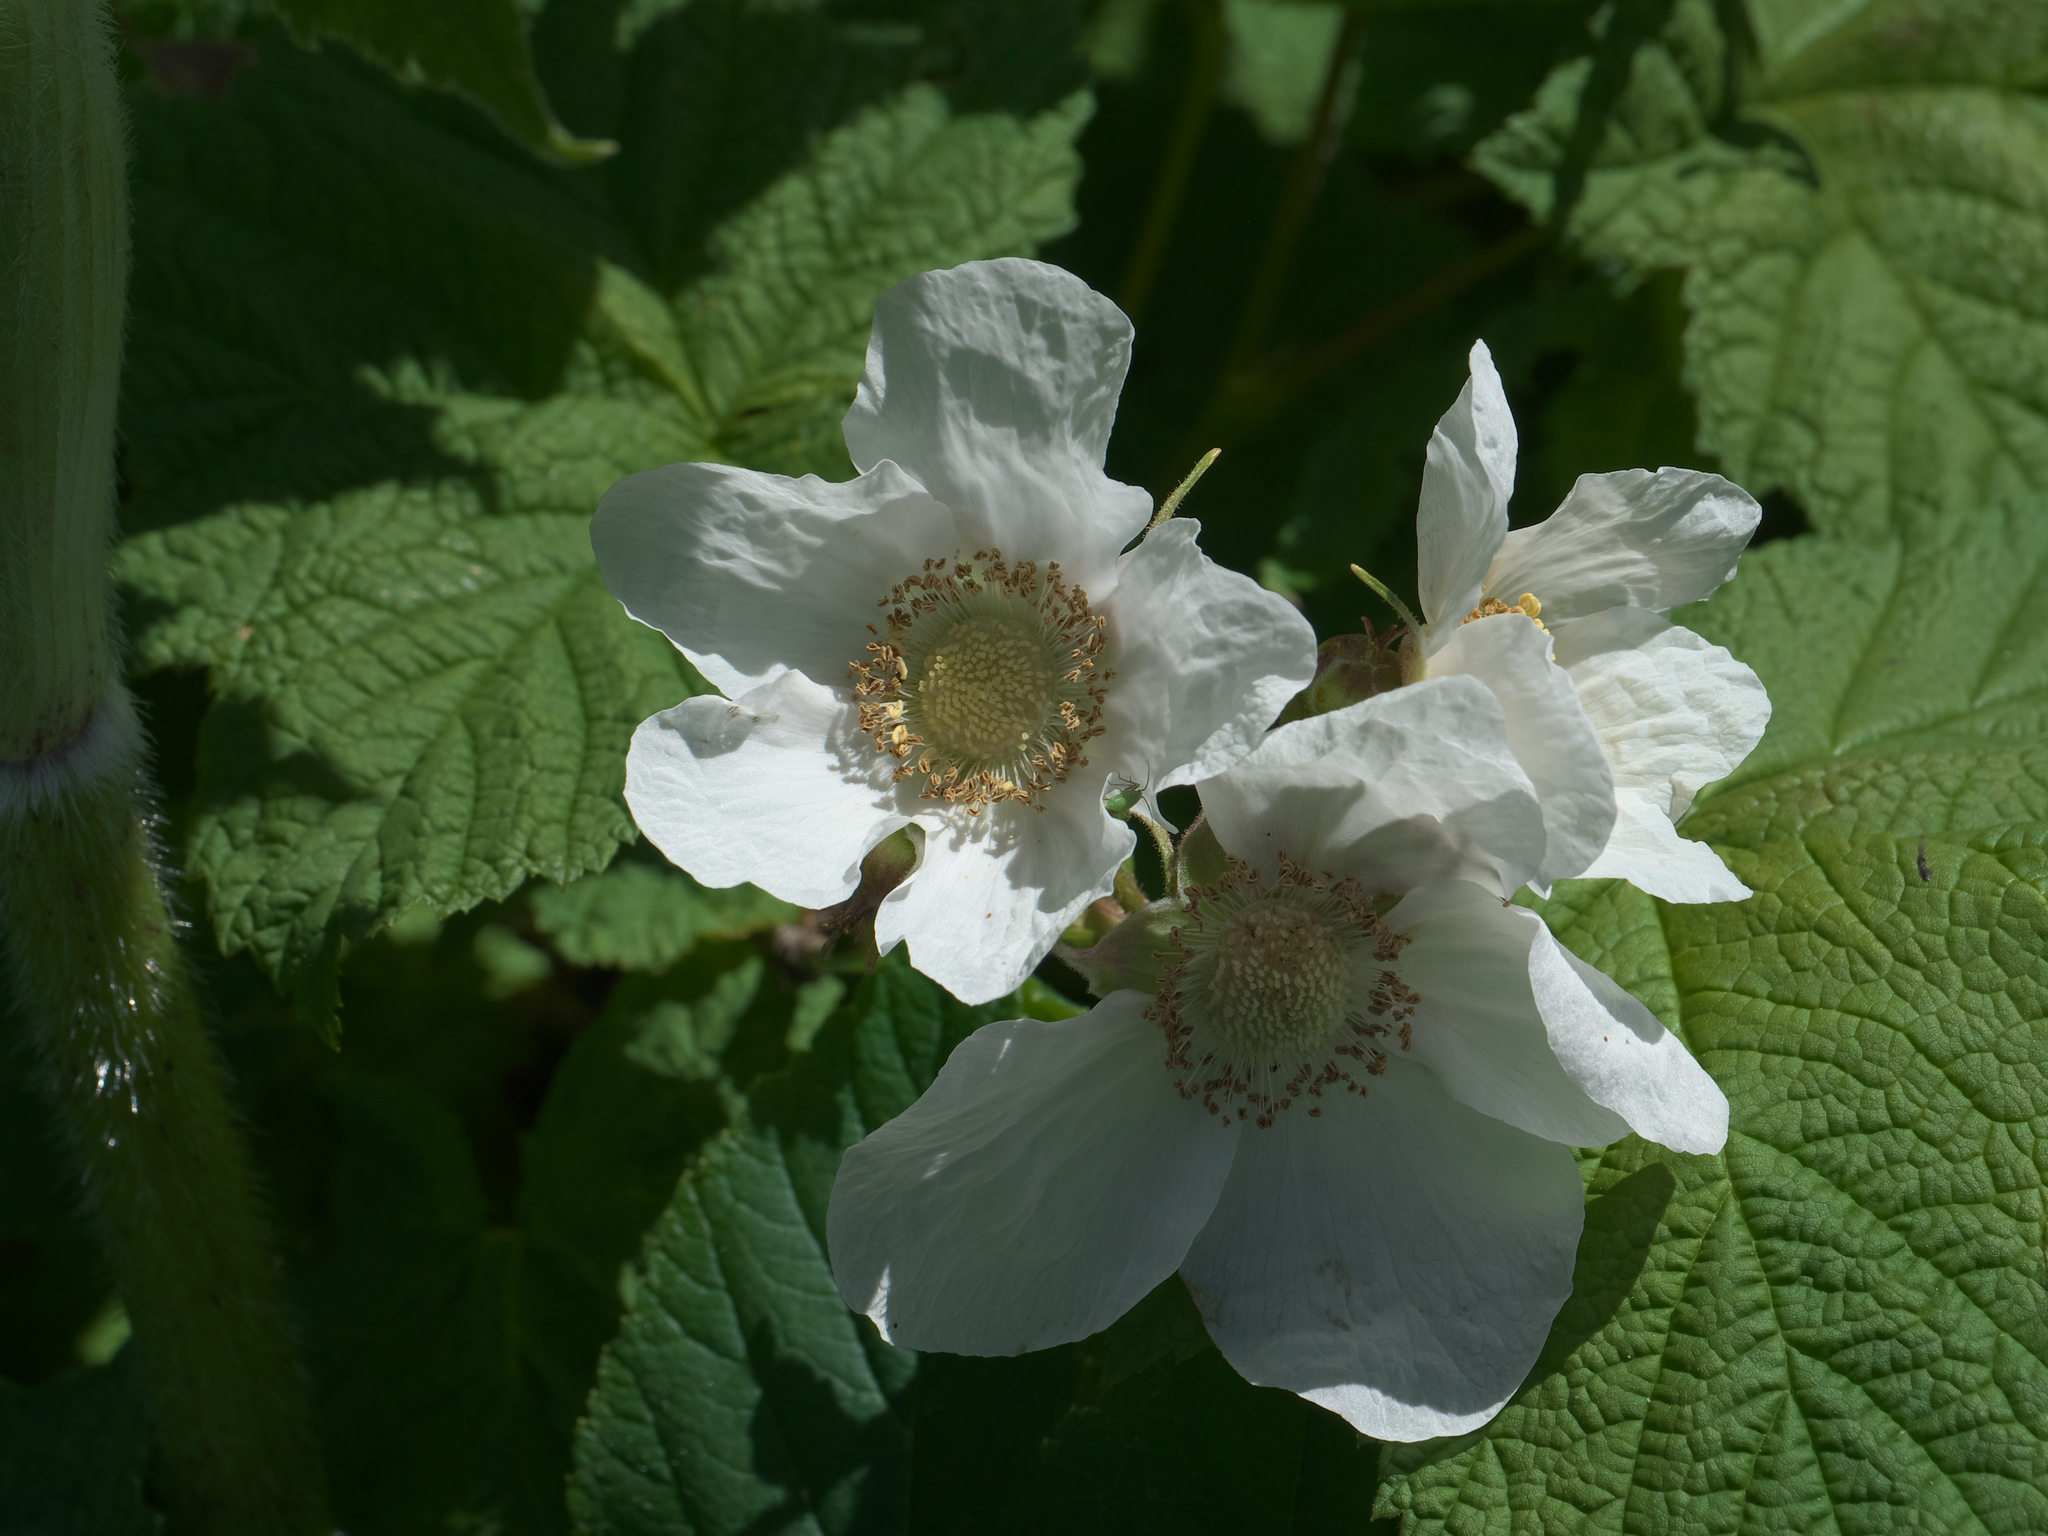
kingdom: Plantae
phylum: Tracheophyta
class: Magnoliopsida
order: Rosales
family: Rosaceae
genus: Rubus
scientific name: Rubus parviflorus
